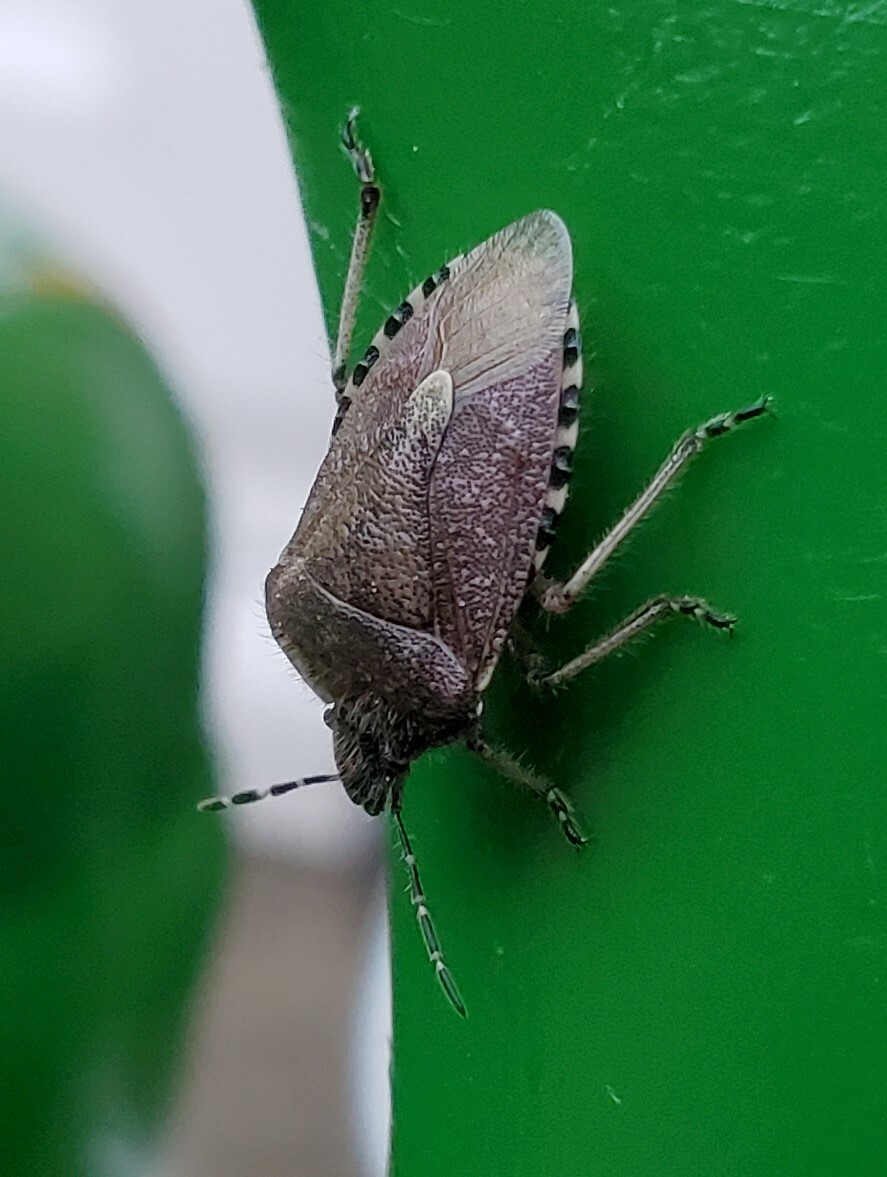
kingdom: Animalia
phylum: Arthropoda
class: Insecta
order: Hemiptera
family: Pentatomidae
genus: Dolycoris
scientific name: Dolycoris baccarum
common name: Sloe bug
